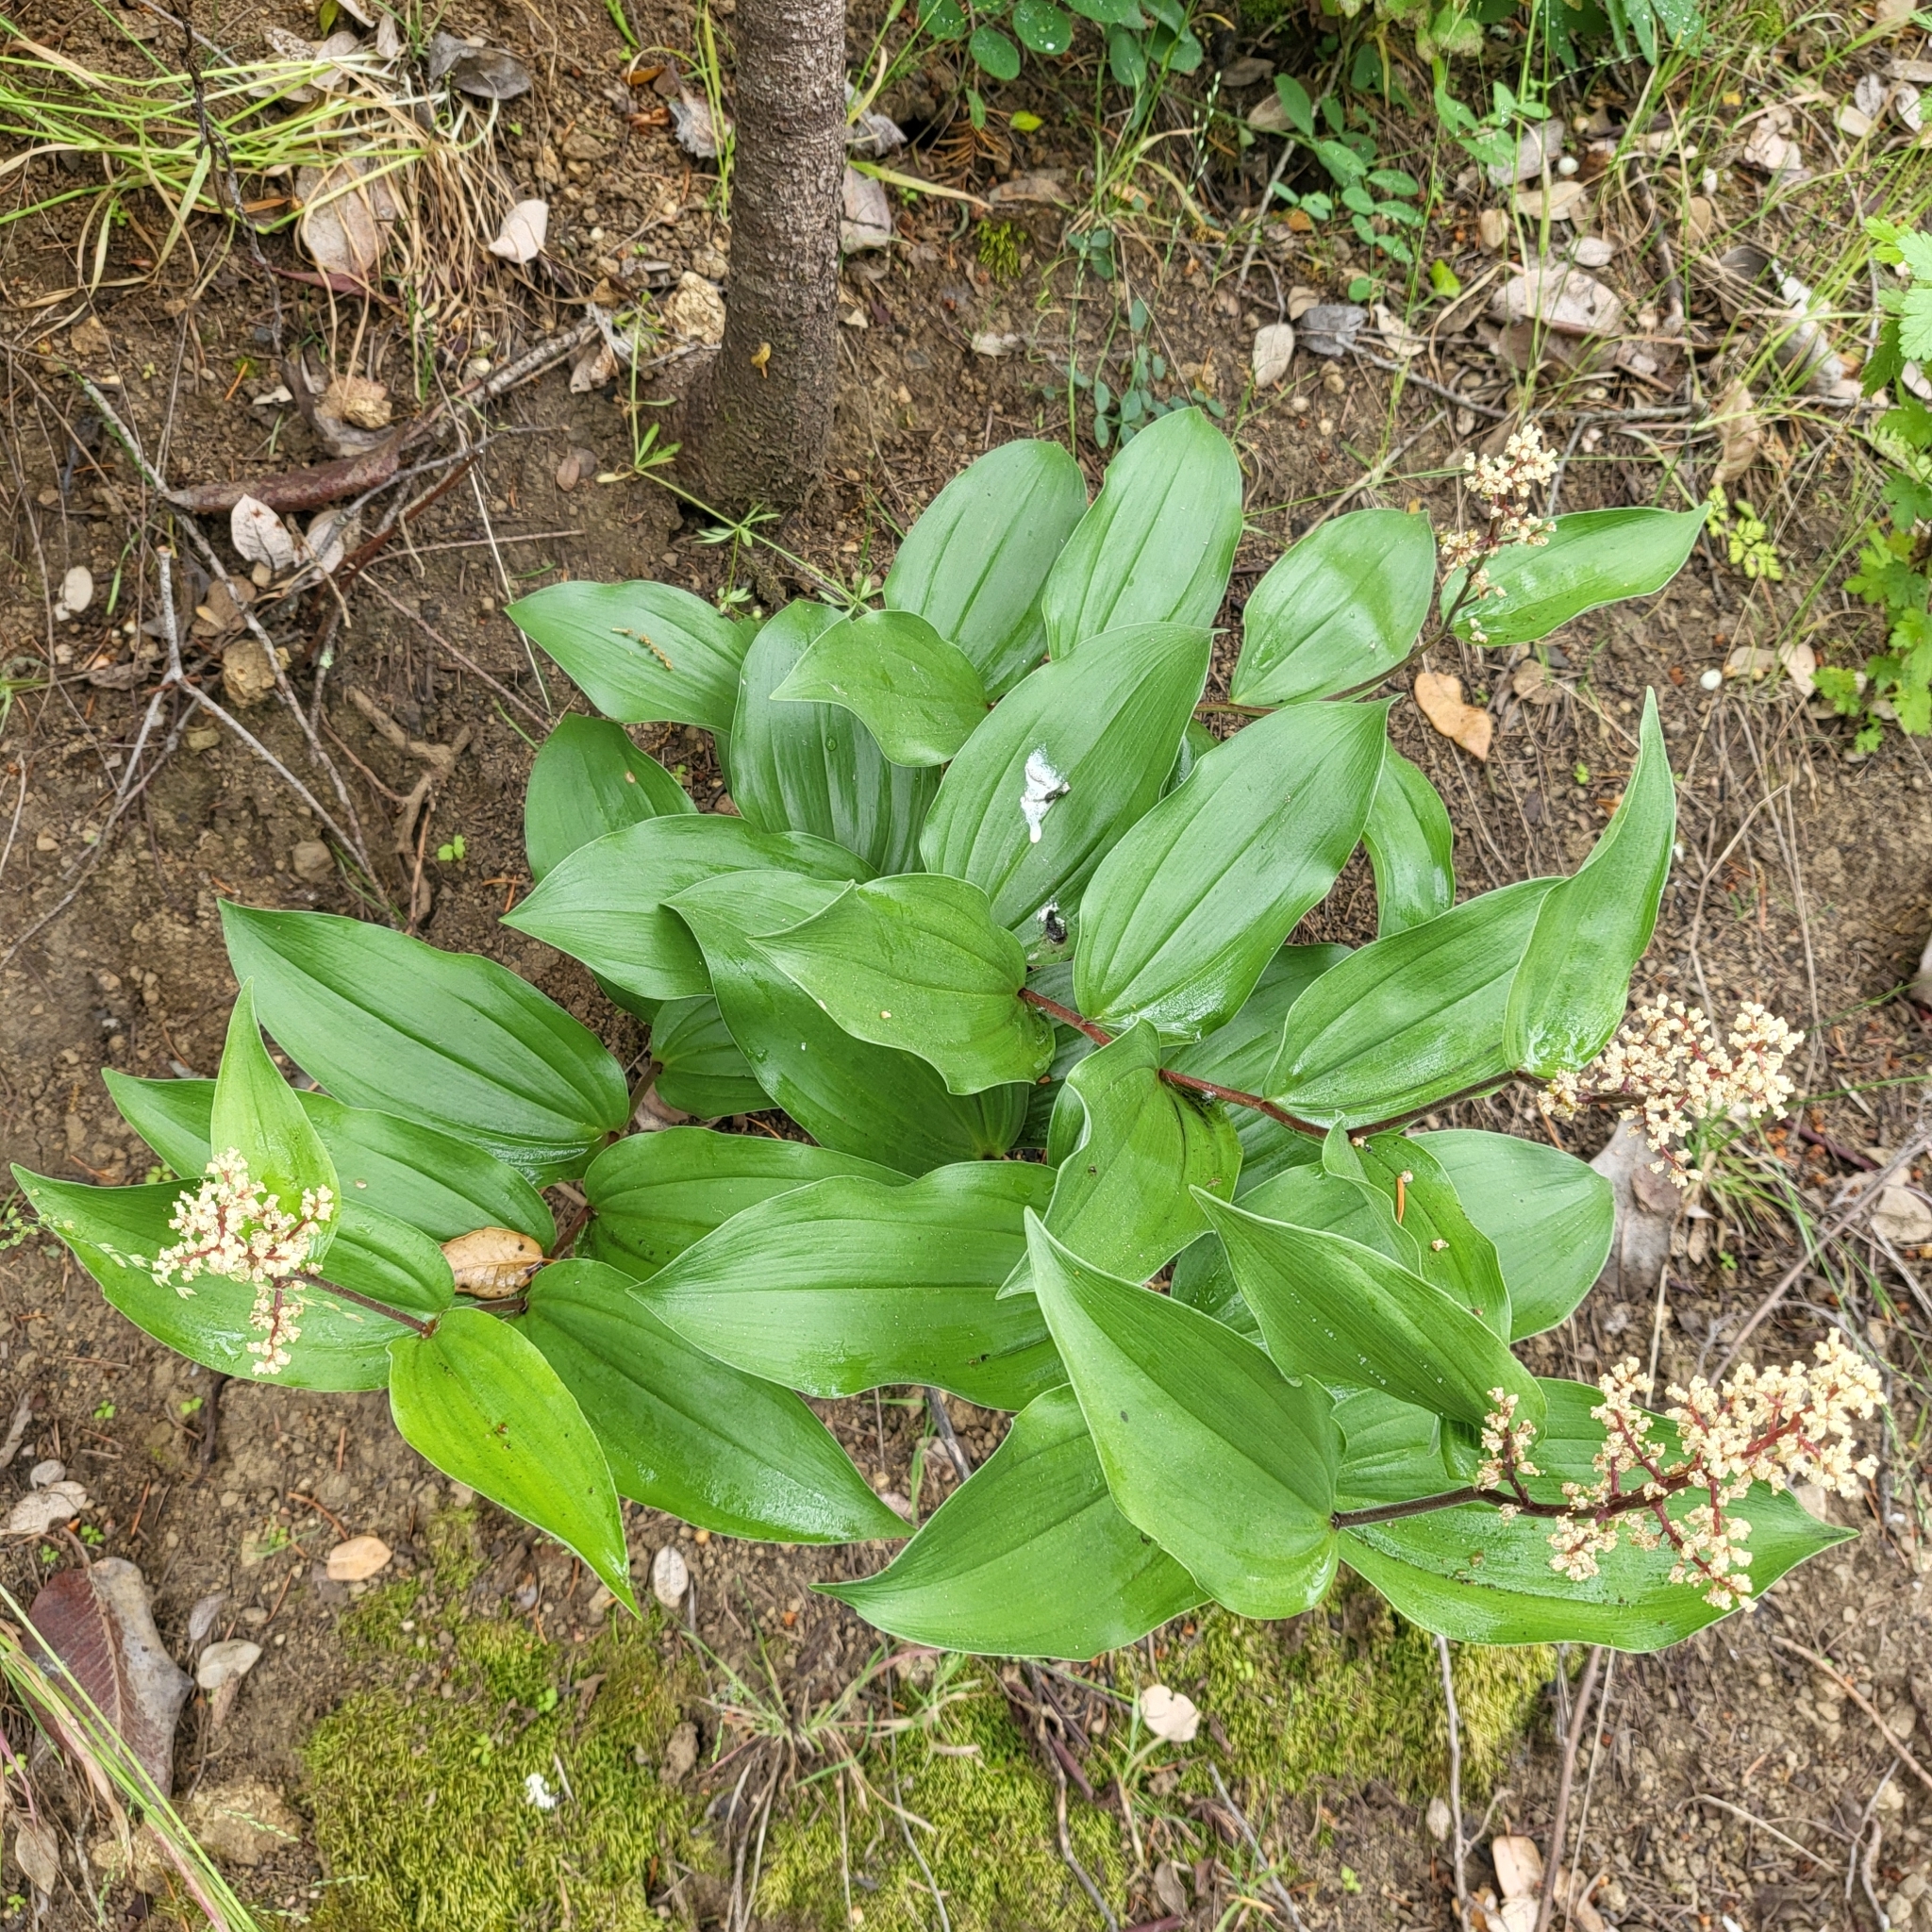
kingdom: Plantae
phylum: Tracheophyta
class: Liliopsida
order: Asparagales
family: Asparagaceae
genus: Maianthemum
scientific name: Maianthemum racemosum
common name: False spikenard
